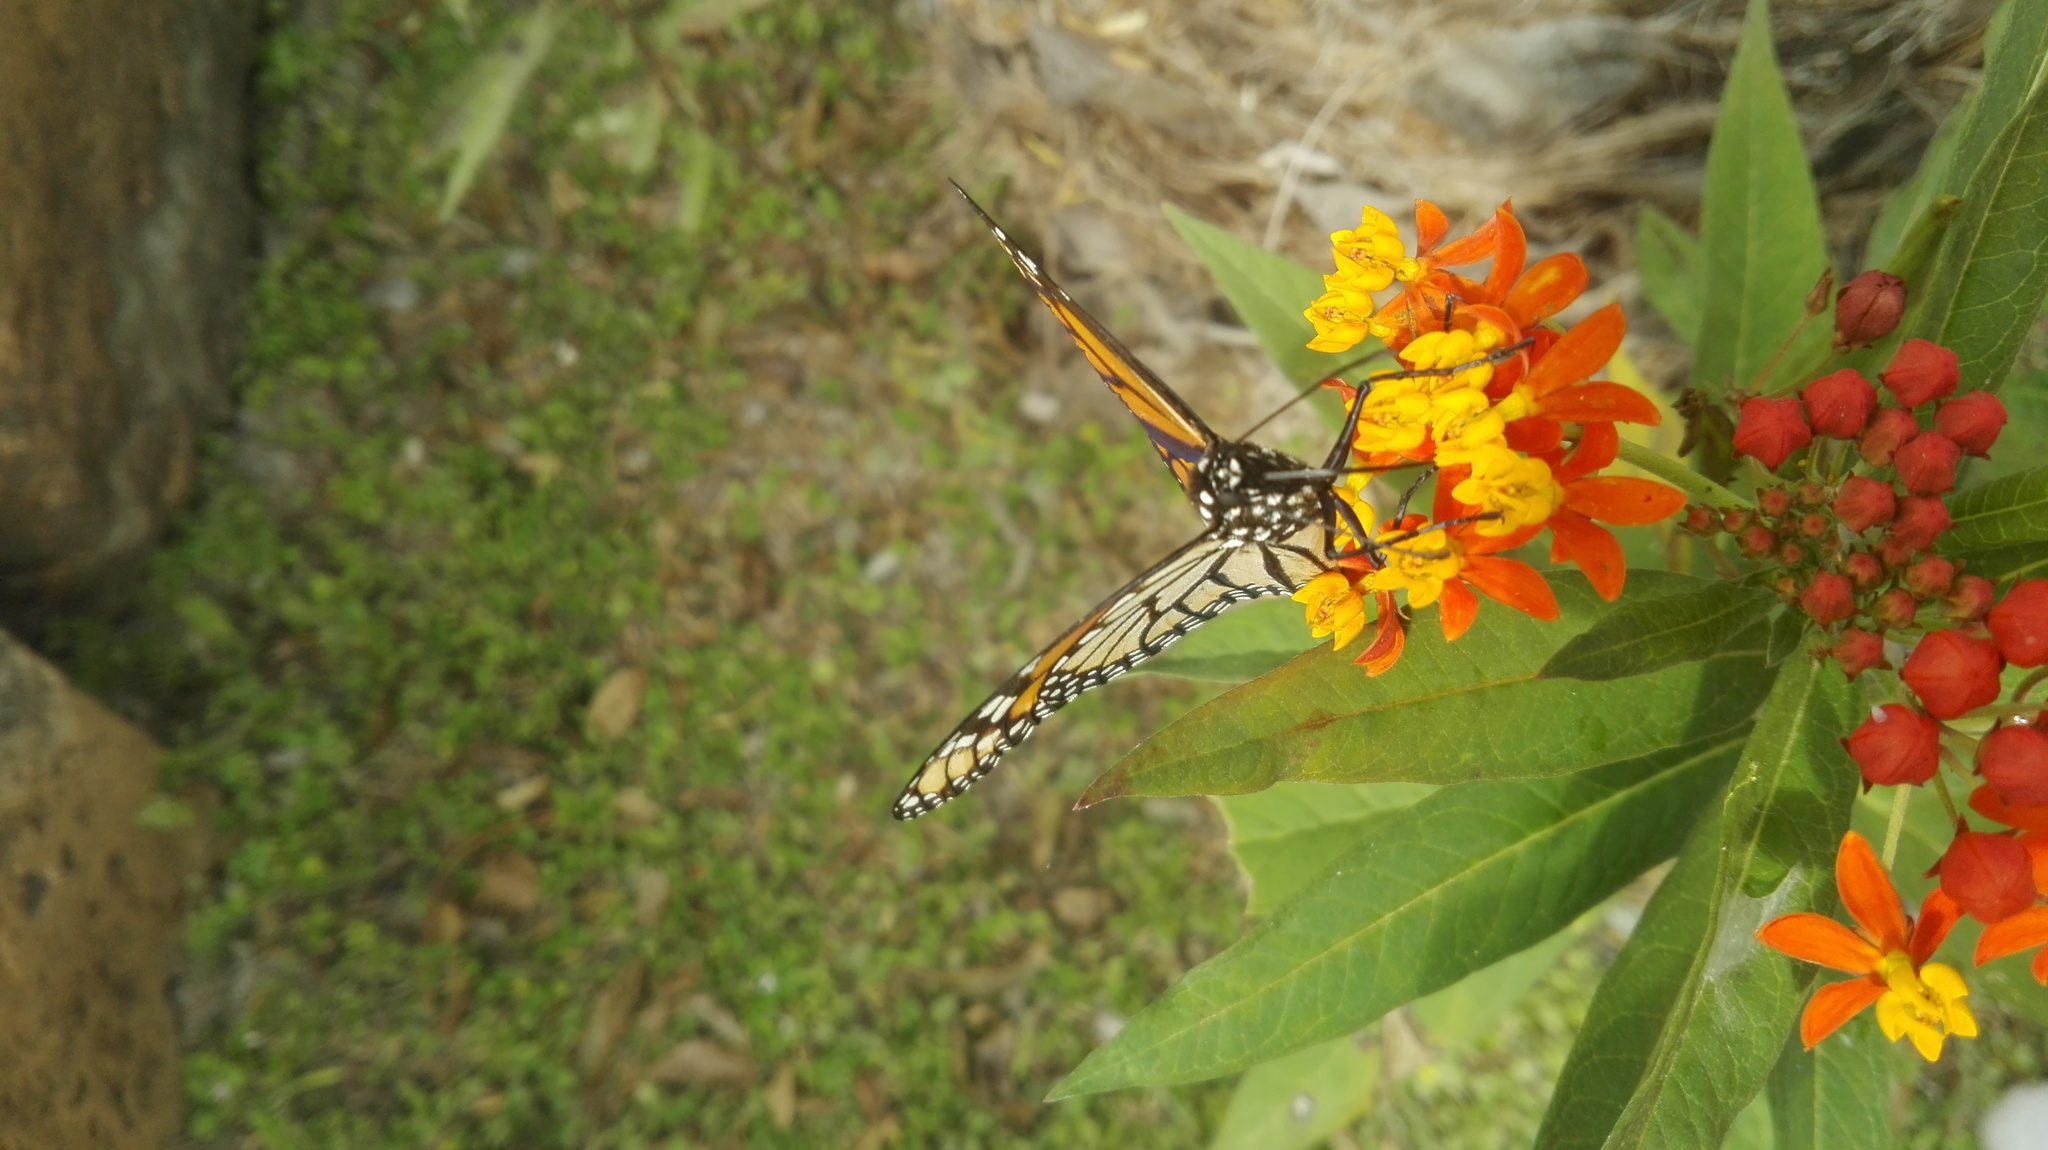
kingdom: Animalia
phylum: Arthropoda
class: Insecta
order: Lepidoptera
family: Nymphalidae
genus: Danaus
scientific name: Danaus plexippus
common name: Monarch
